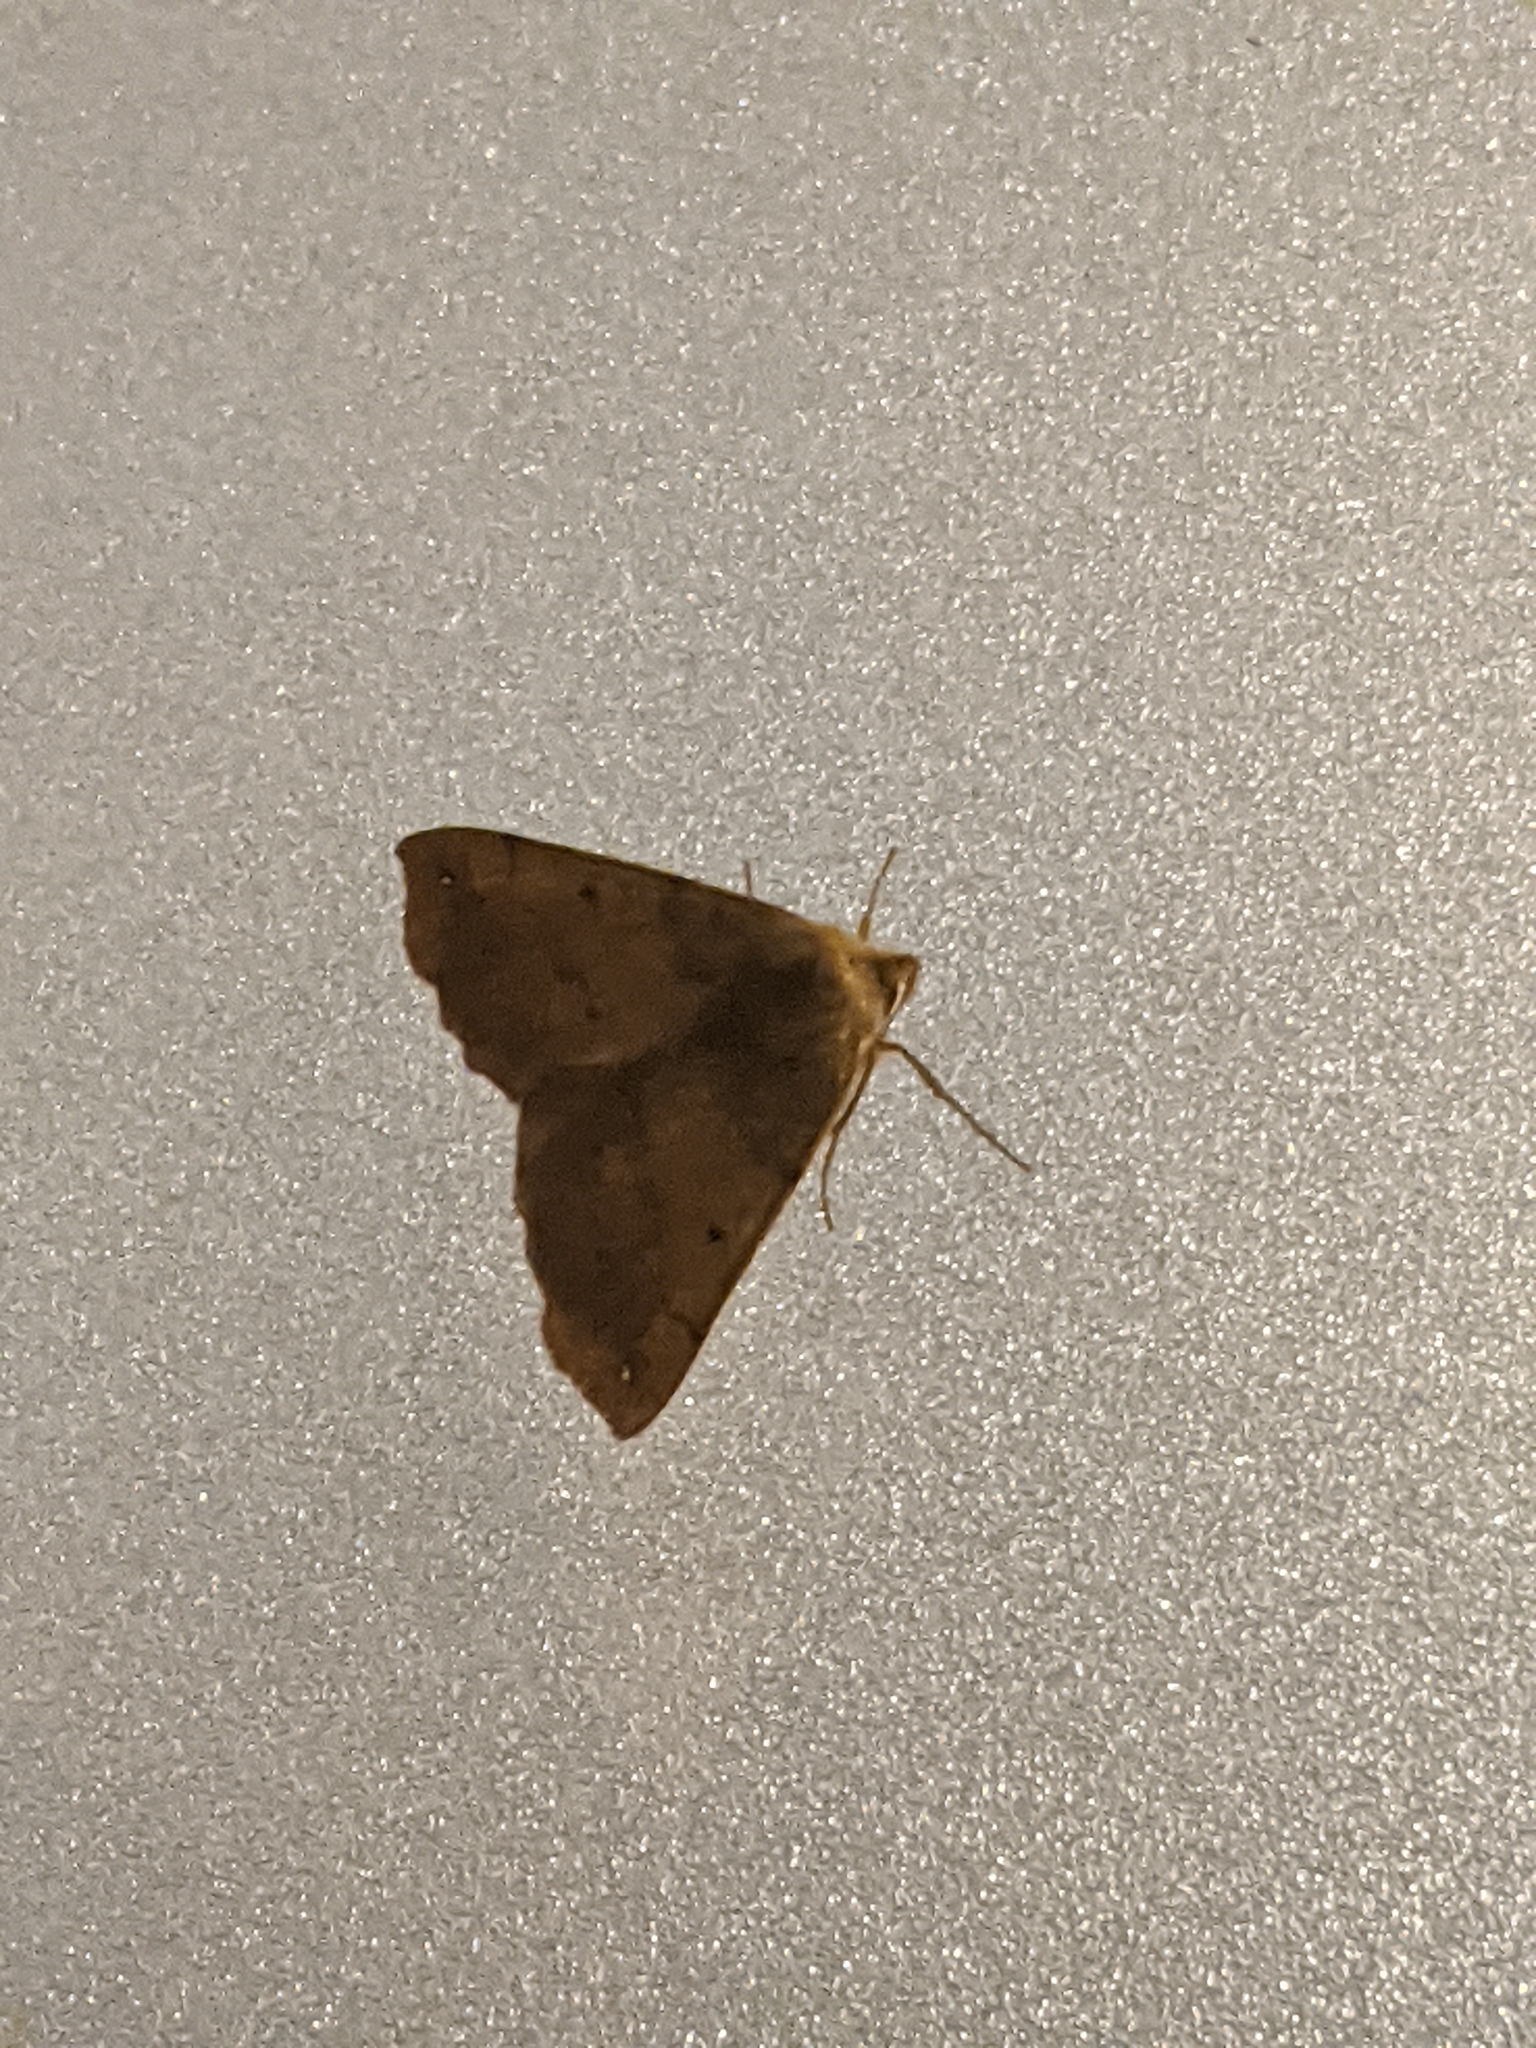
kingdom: Animalia
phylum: Arthropoda
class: Insecta
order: Lepidoptera
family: Geometridae
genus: Colotois
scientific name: Colotois pennaria
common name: Feathered thorn
